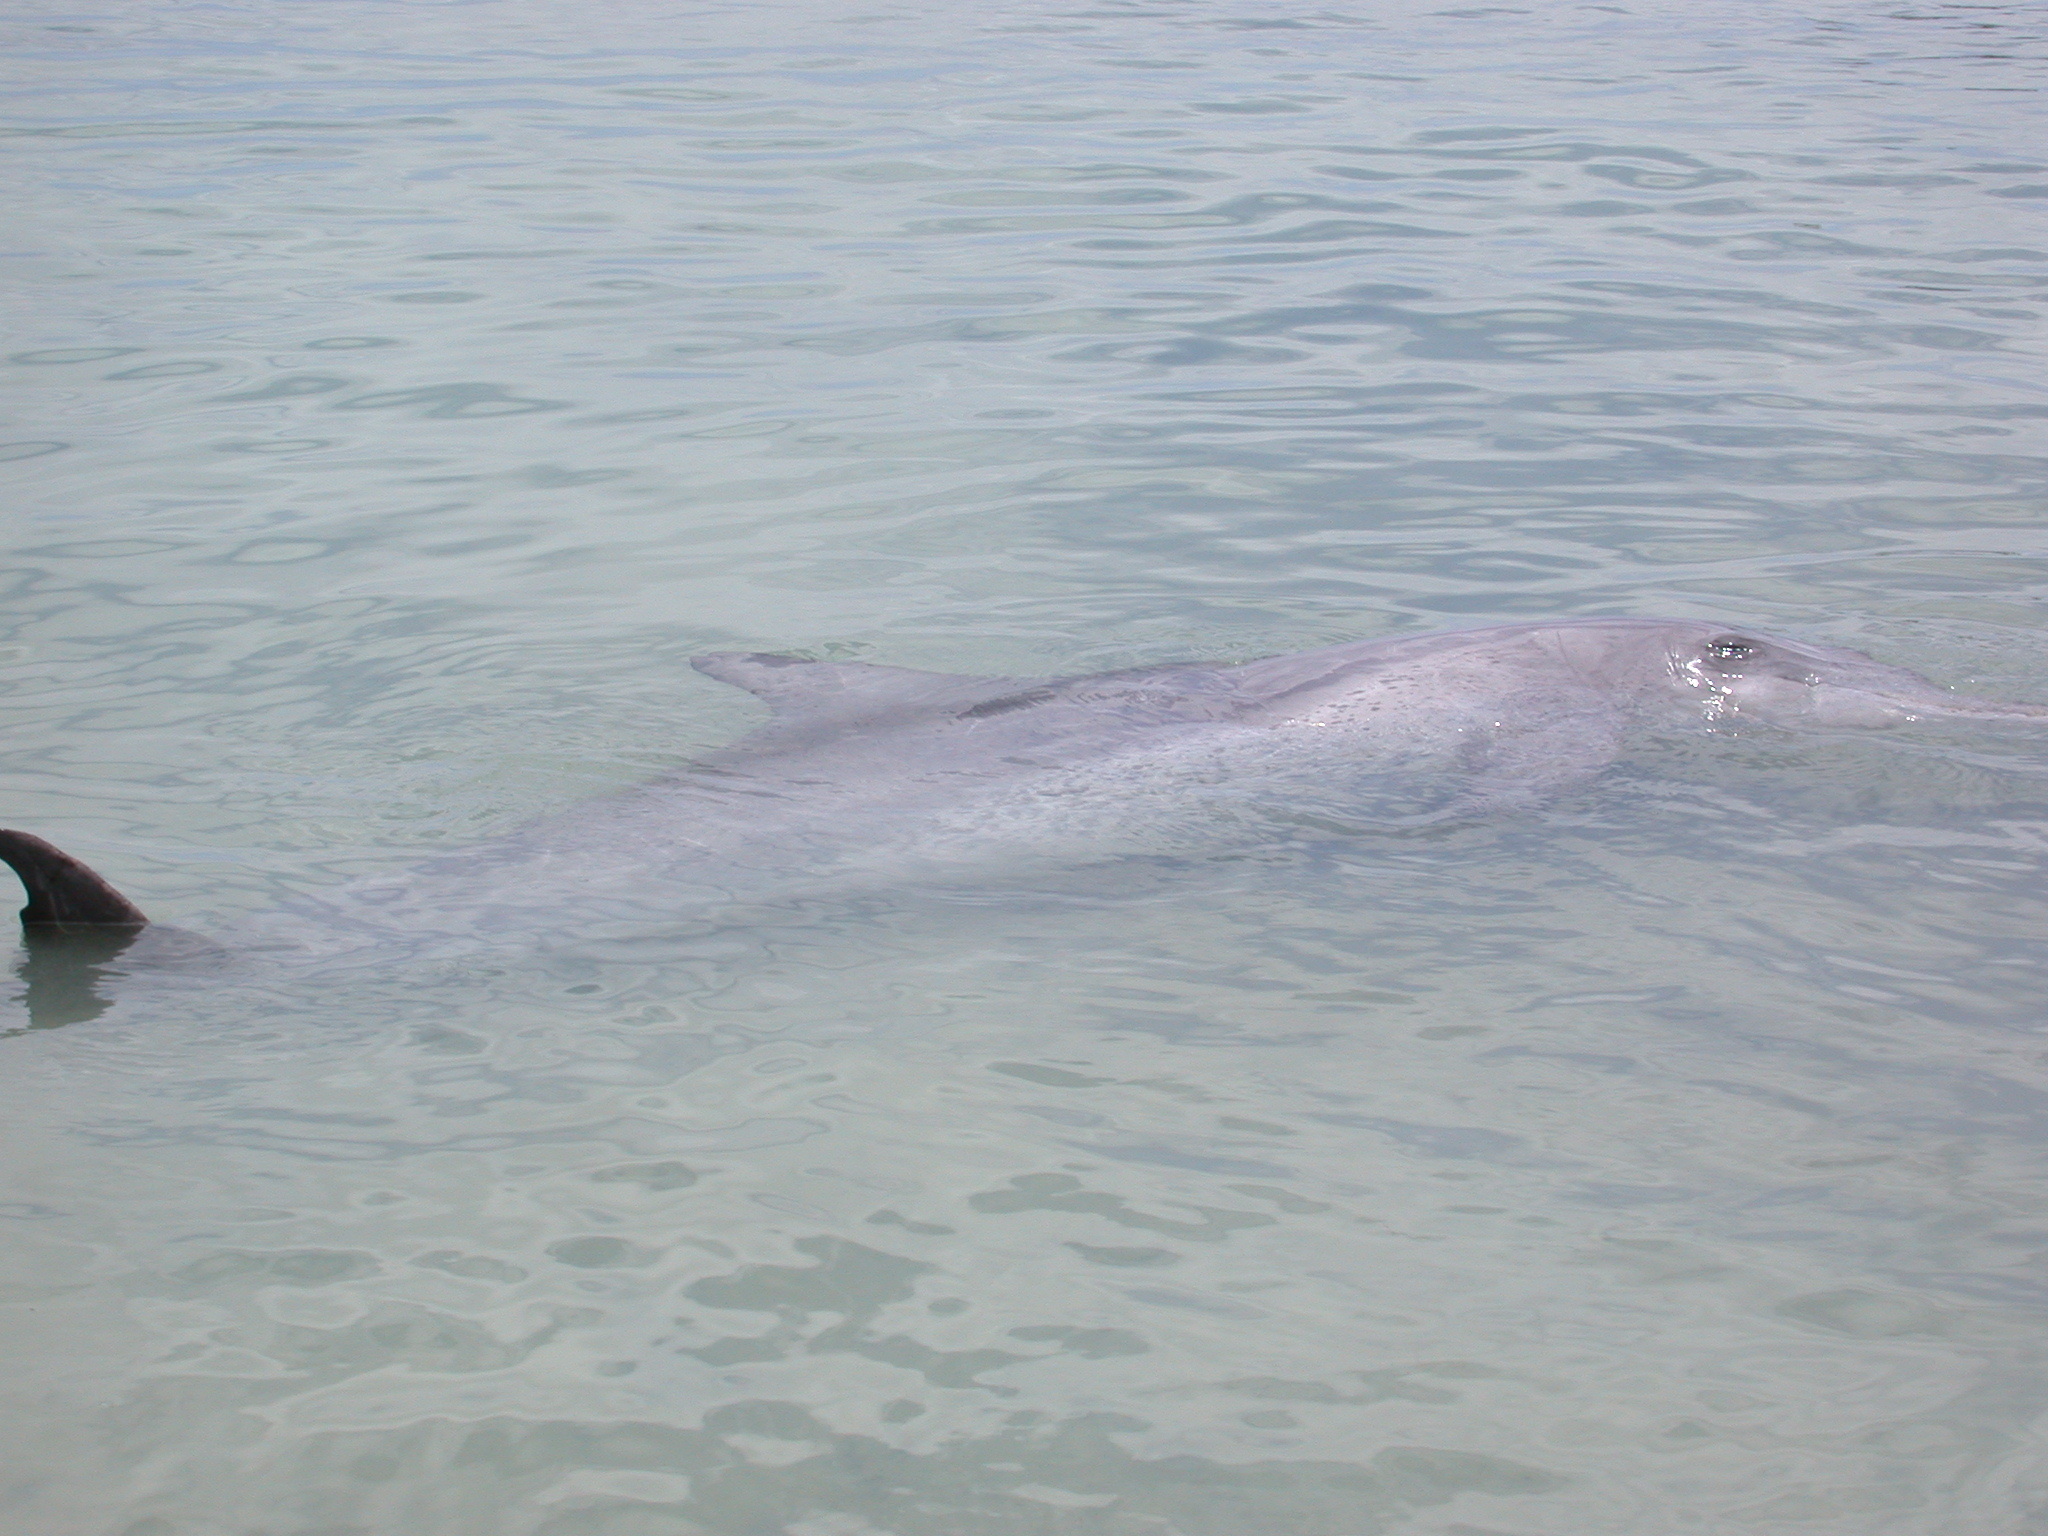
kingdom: Animalia
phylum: Chordata
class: Mammalia
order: Cetacea
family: Delphinidae
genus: Tursiops
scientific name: Tursiops aduncus
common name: Indo-pacific bottlenose dolphin
